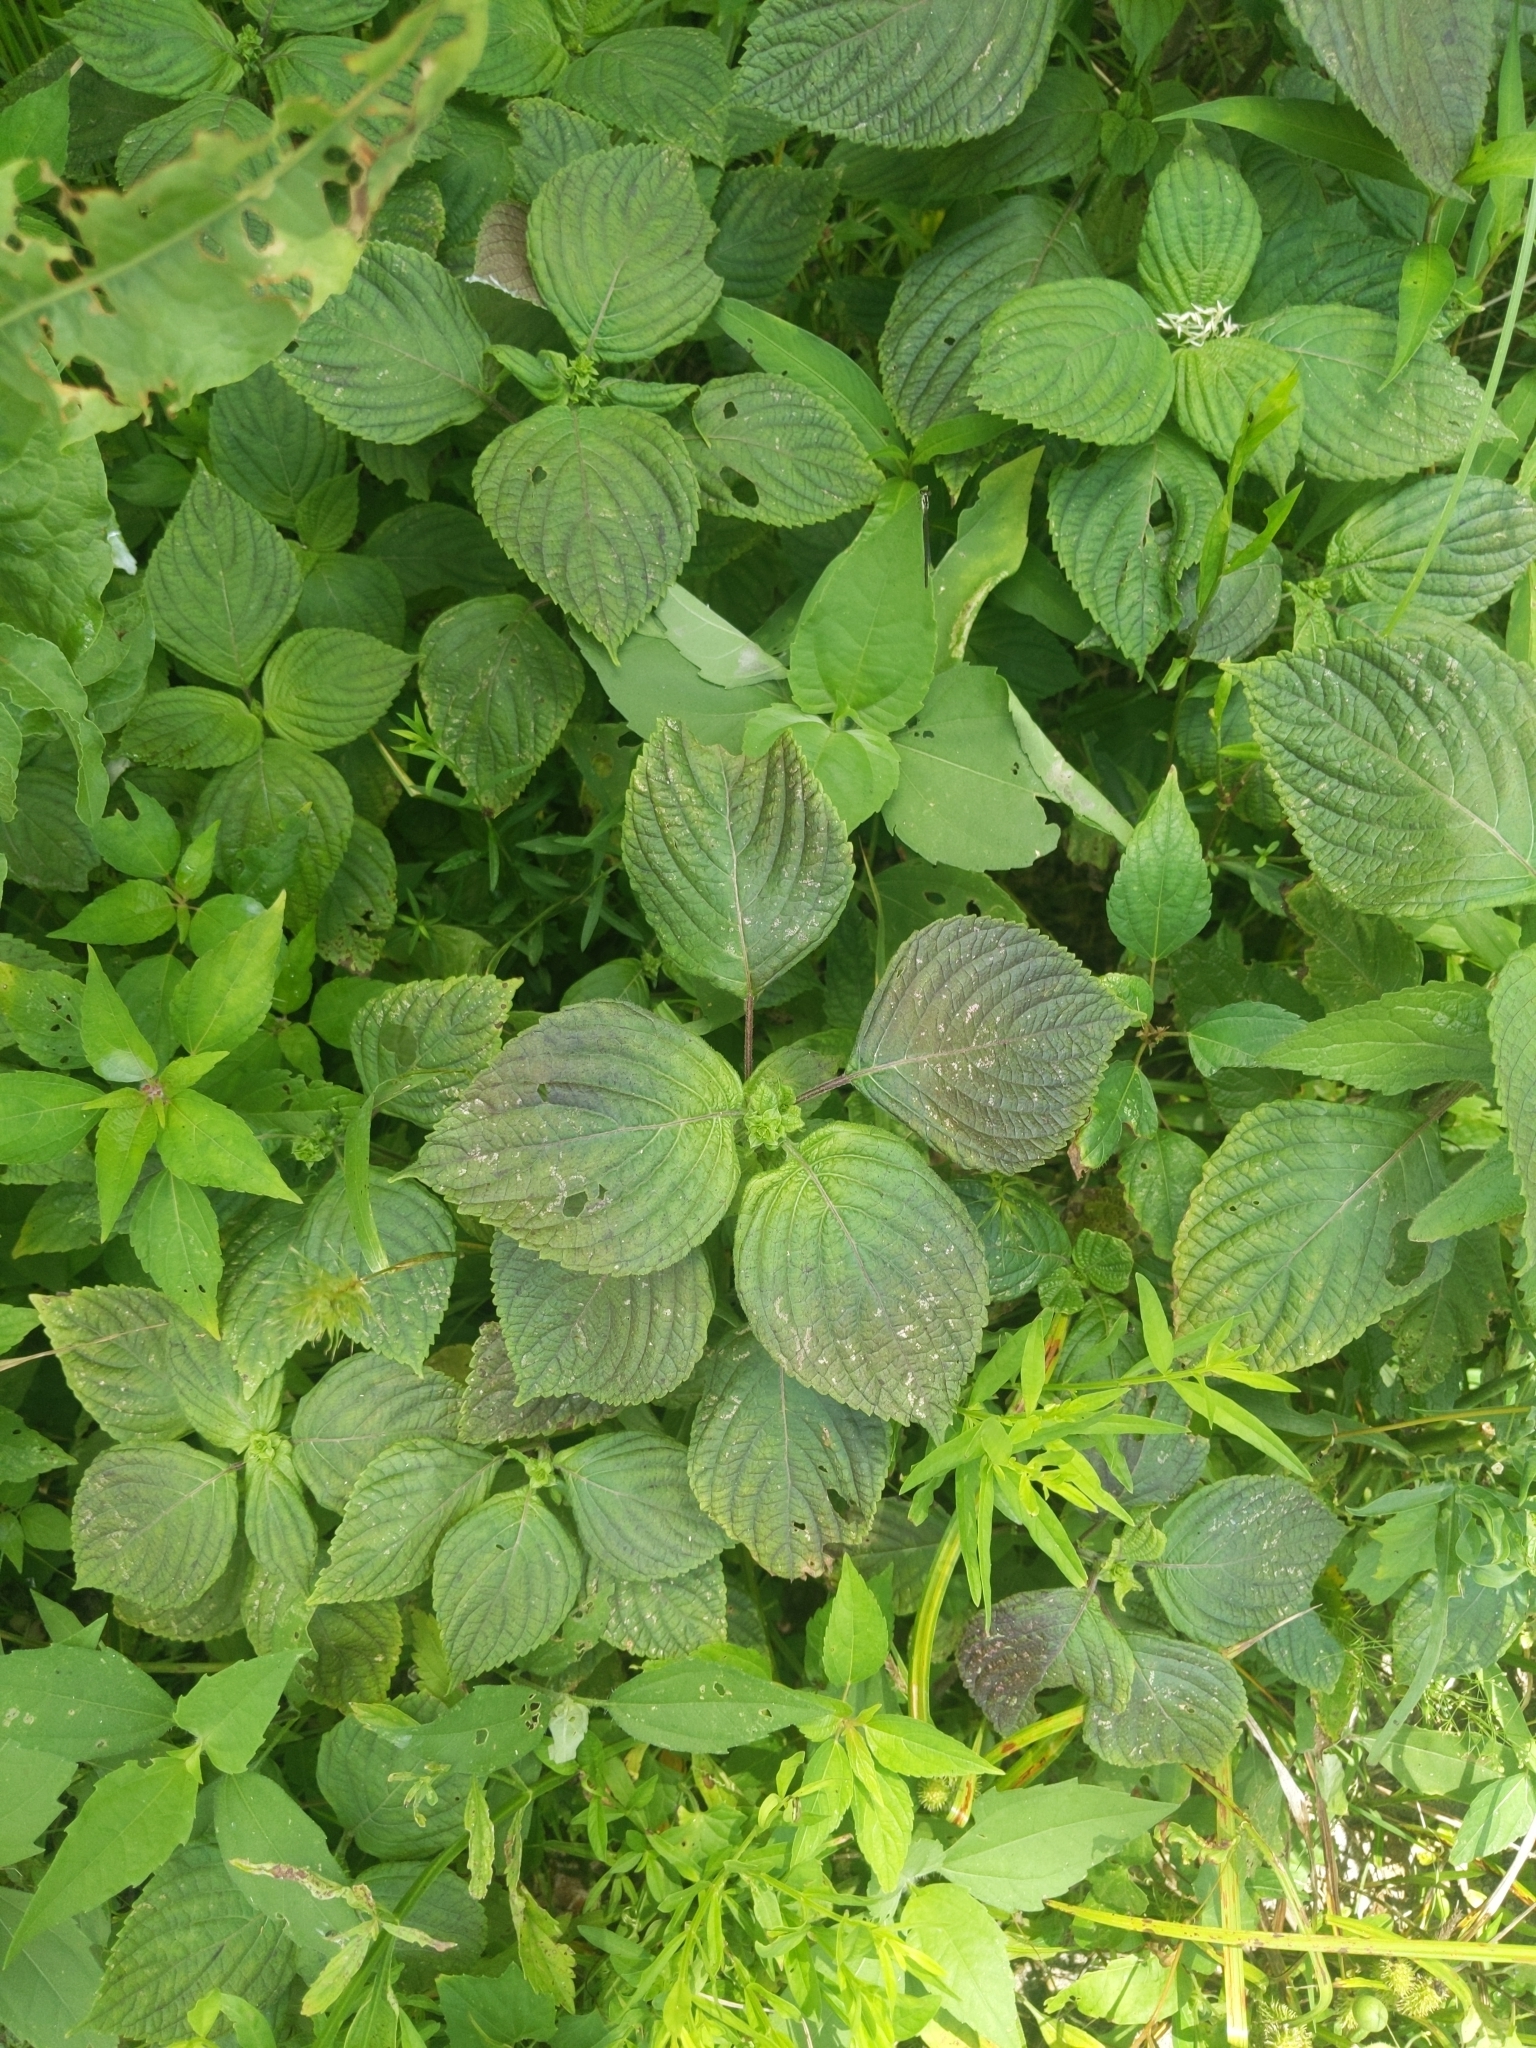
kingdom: Plantae
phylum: Tracheophyta
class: Magnoliopsida
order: Lamiales
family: Lamiaceae
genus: Perilla
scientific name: Perilla frutescens
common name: Perilla
